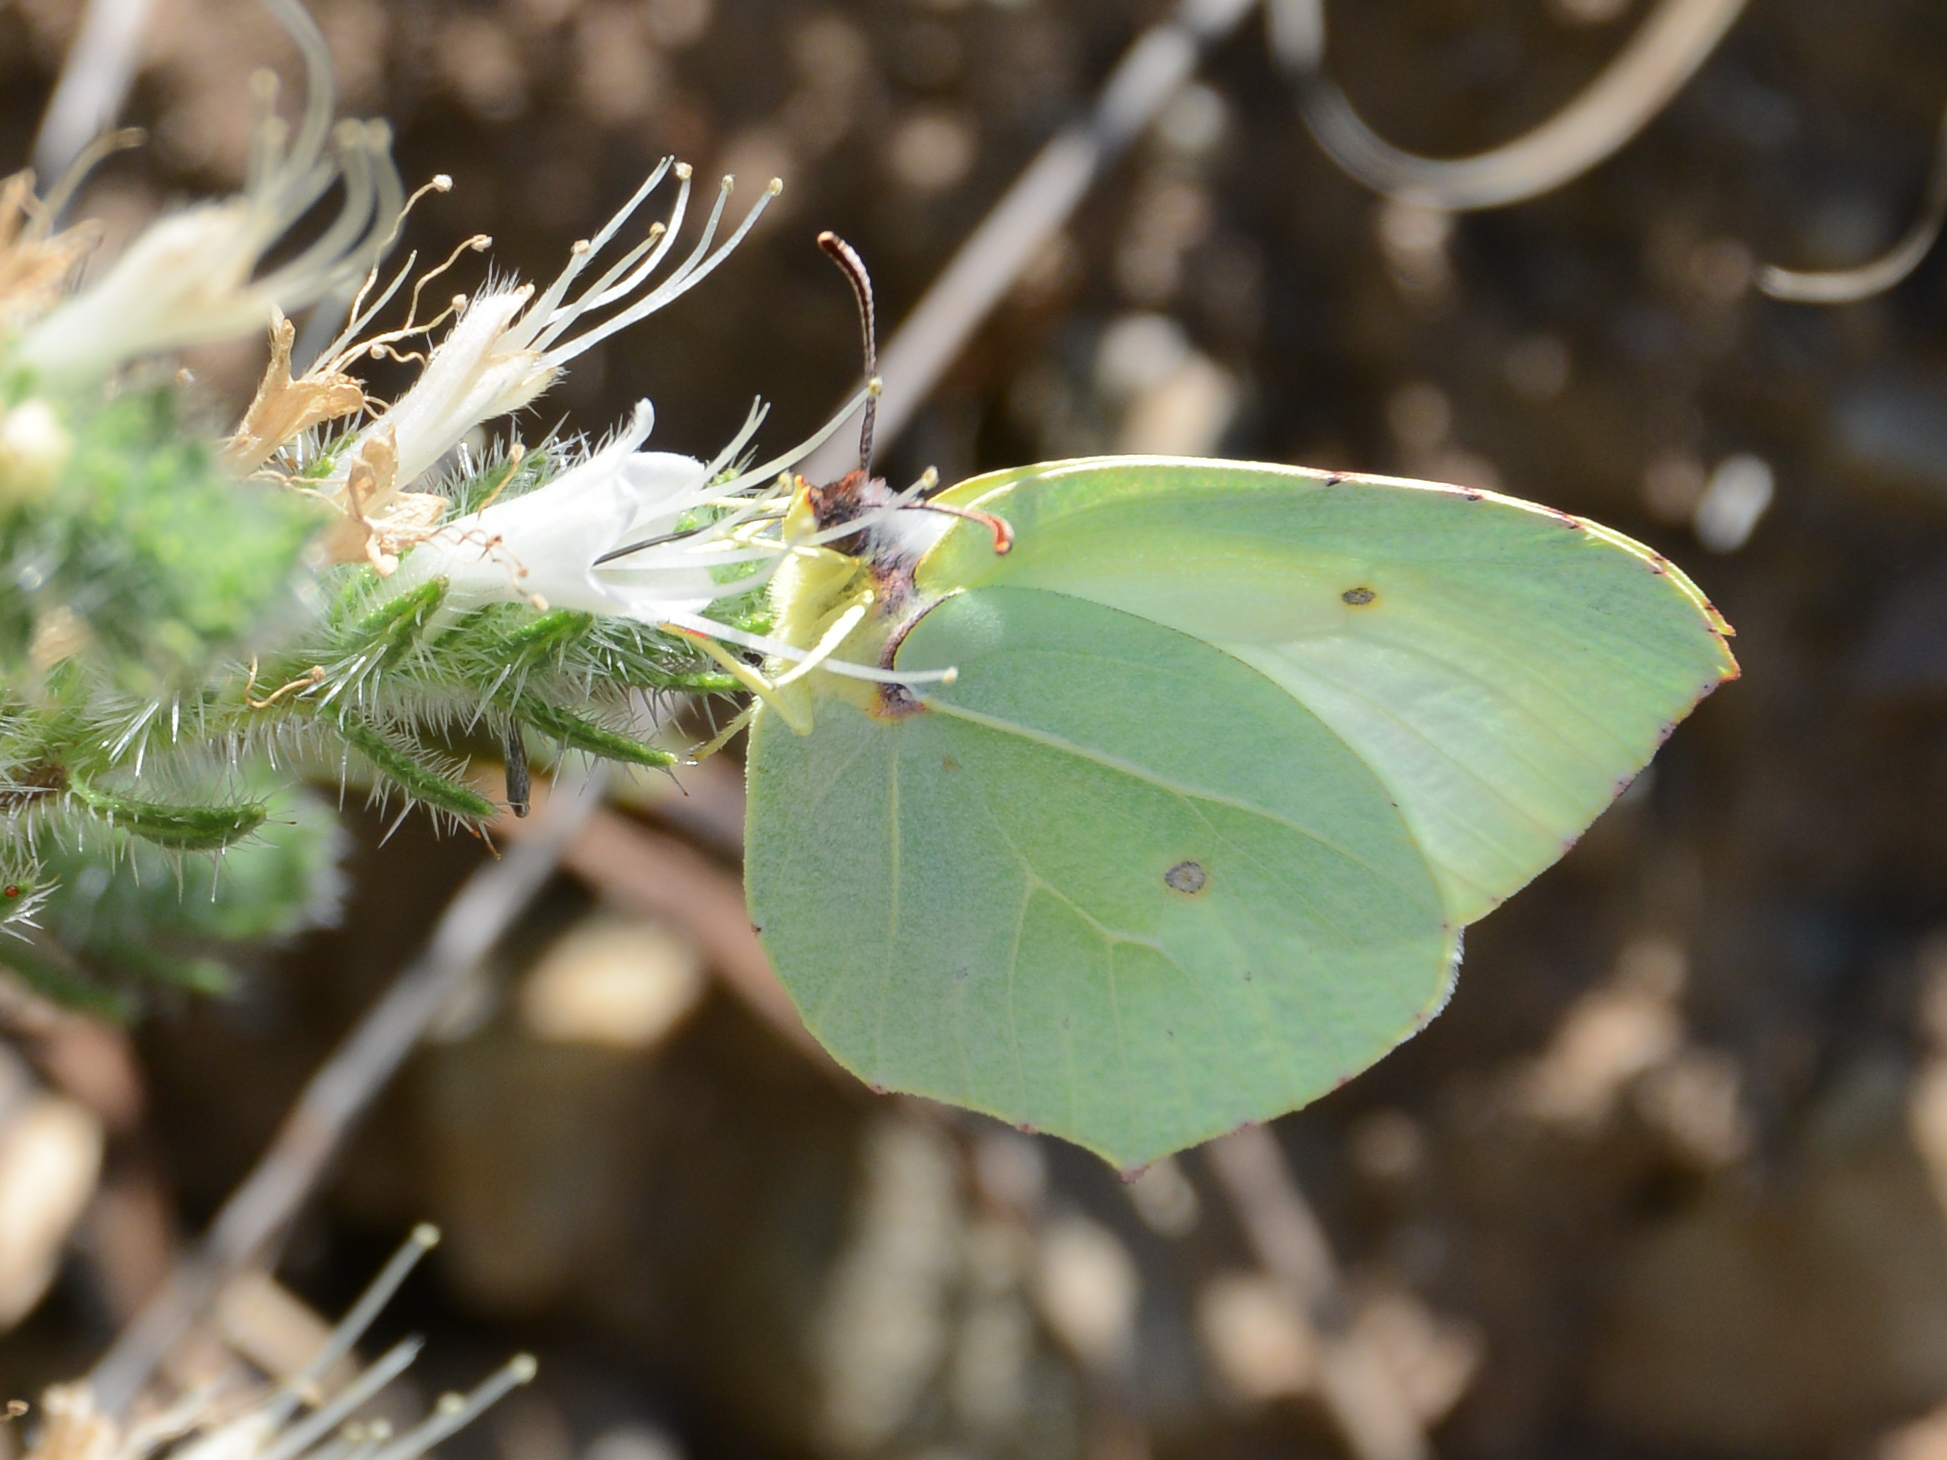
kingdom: Animalia
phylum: Arthropoda
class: Insecta
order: Lepidoptera
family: Pieridae
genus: Gonepteryx
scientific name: Gonepteryx cleopatra
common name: Cleopatra
